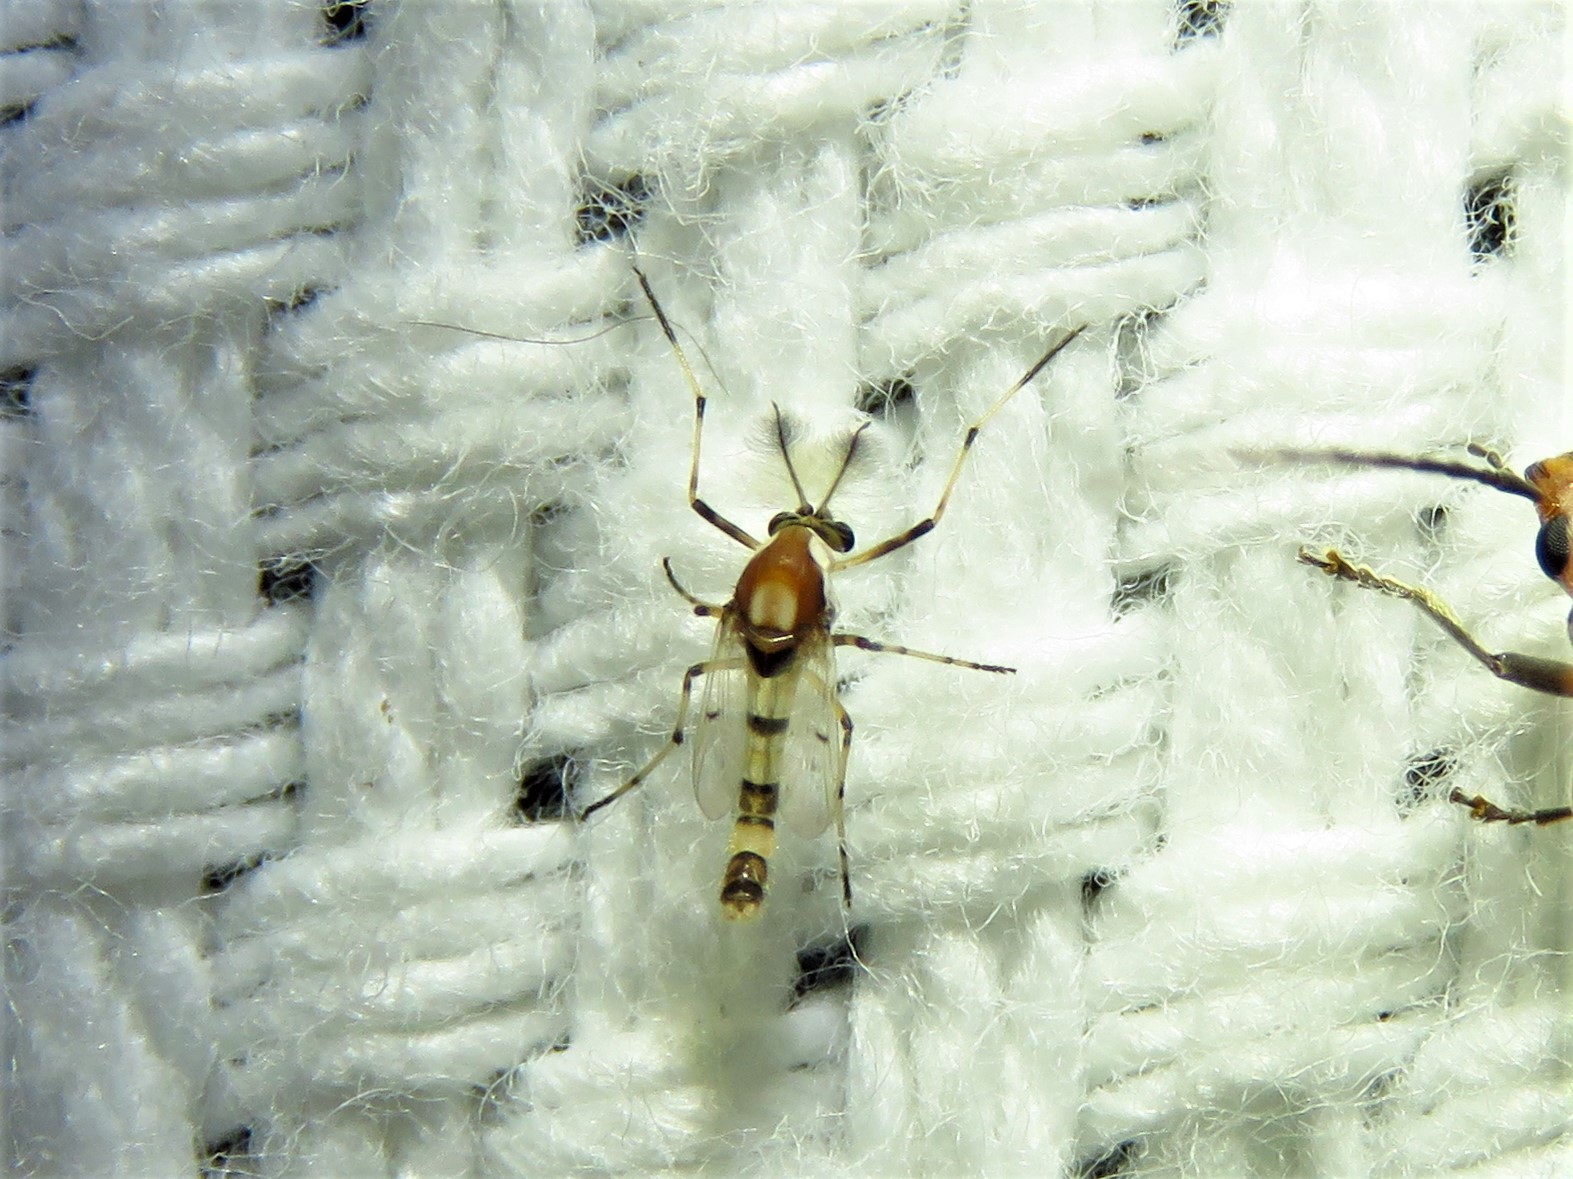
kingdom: Animalia
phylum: Arthropoda
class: Insecta
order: Diptera
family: Chironomidae
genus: Coelotanypus
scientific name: Coelotanypus atus
